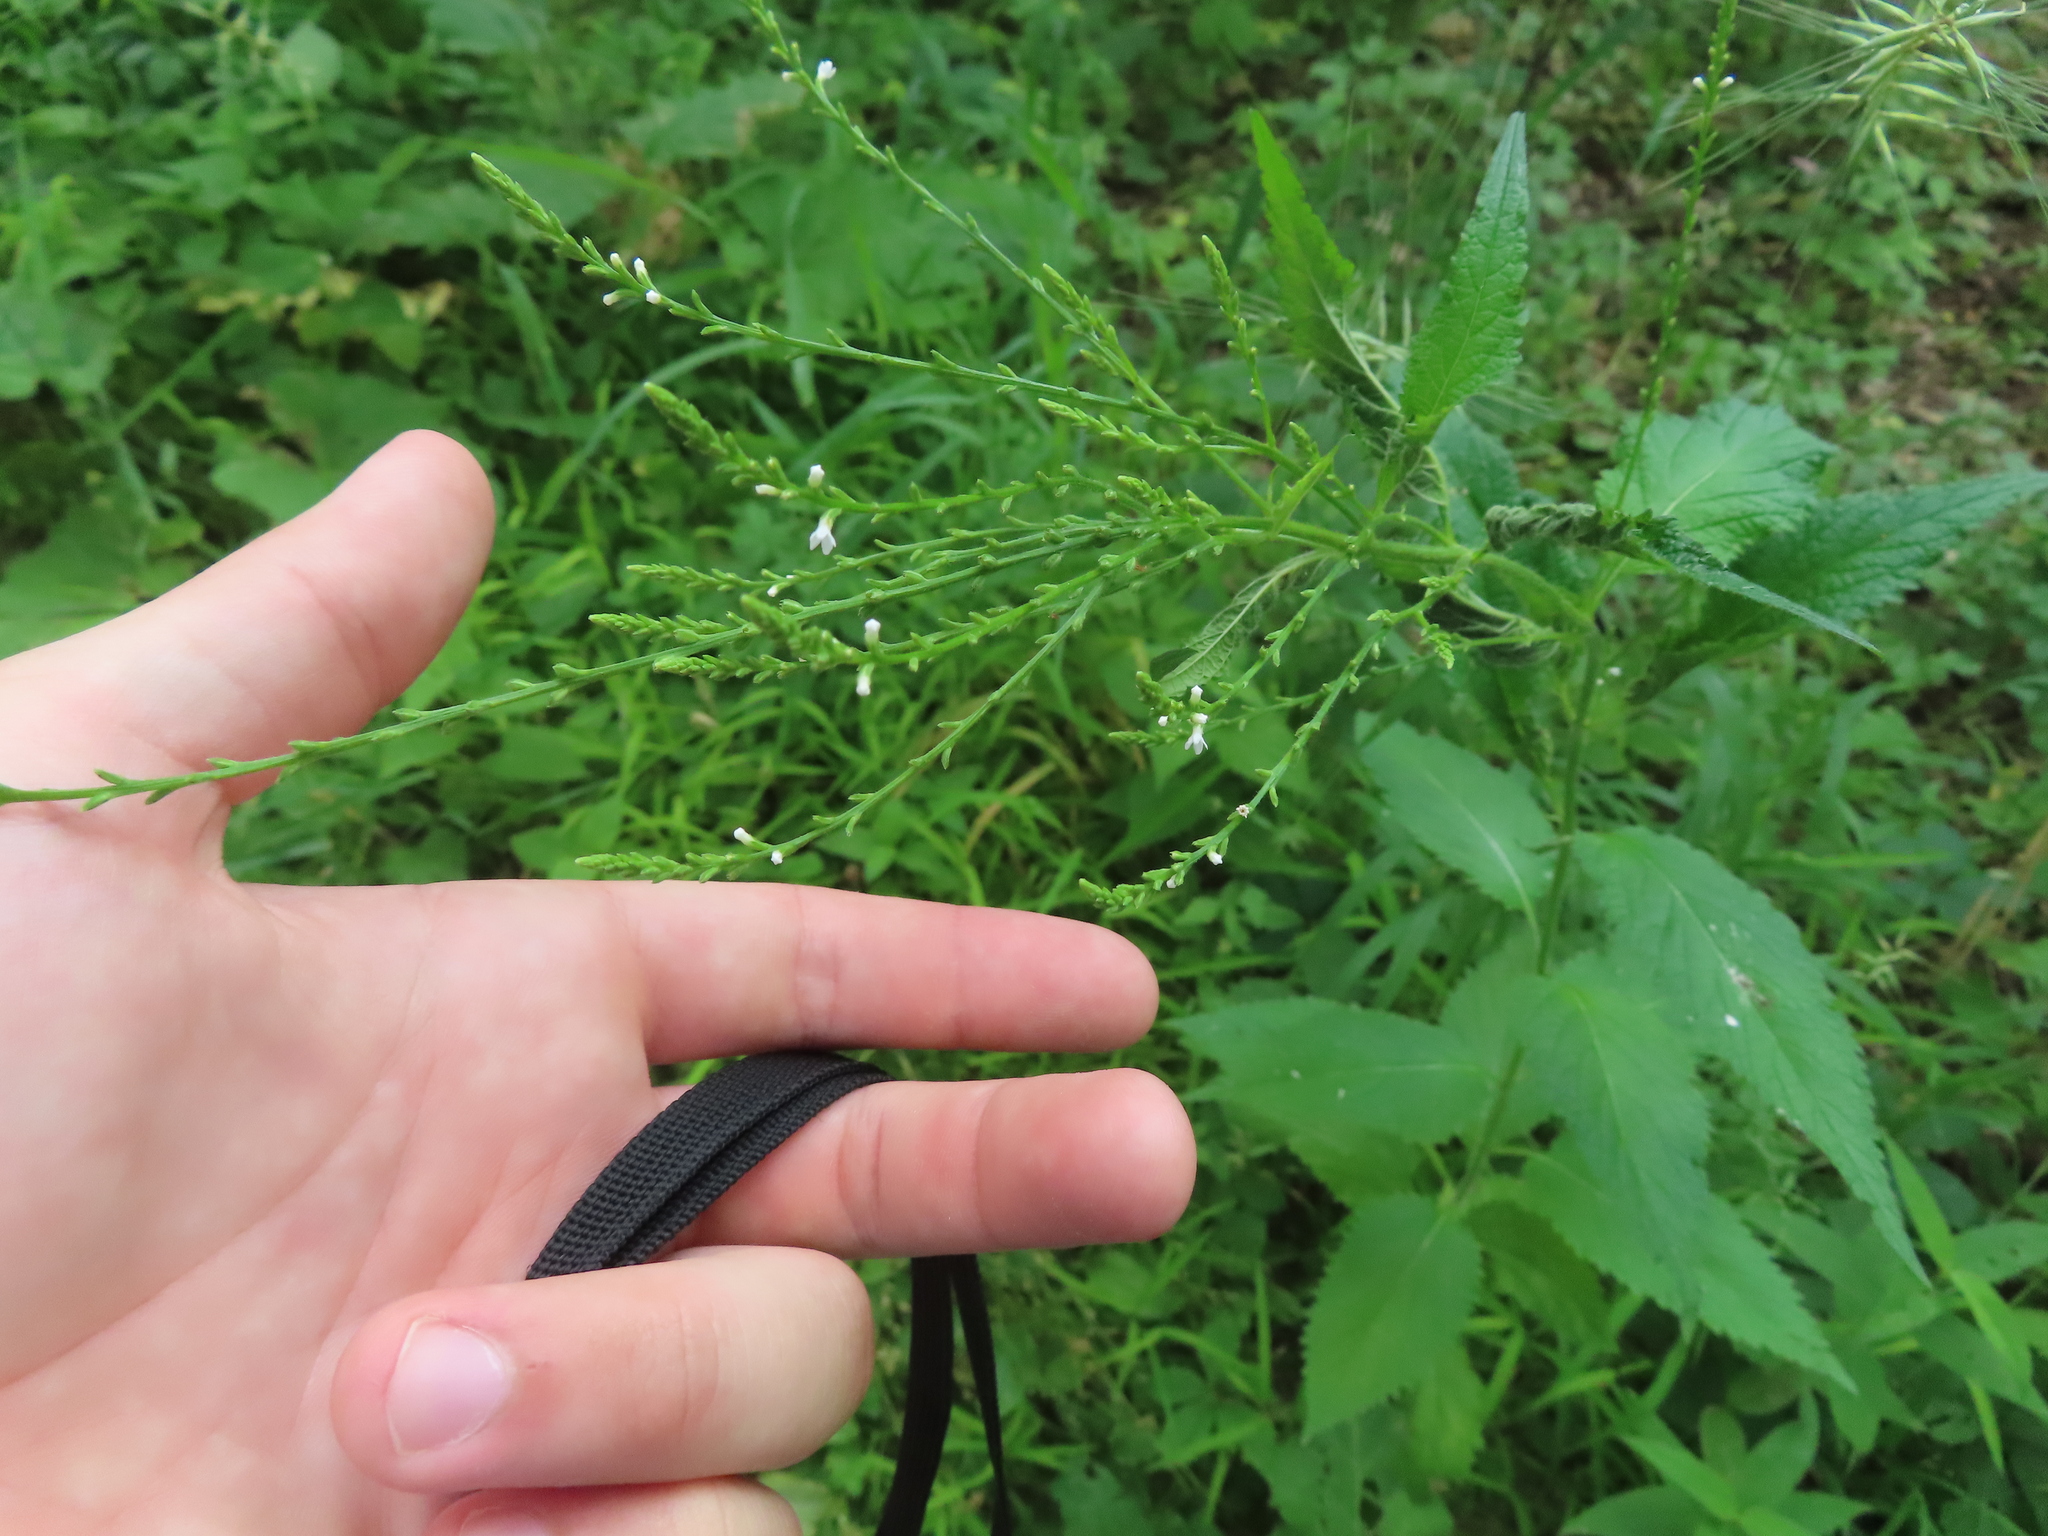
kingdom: Plantae
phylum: Tracheophyta
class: Magnoliopsida
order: Lamiales
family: Verbenaceae
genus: Verbena
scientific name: Verbena urticifolia
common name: Nettle-leaved vervain
